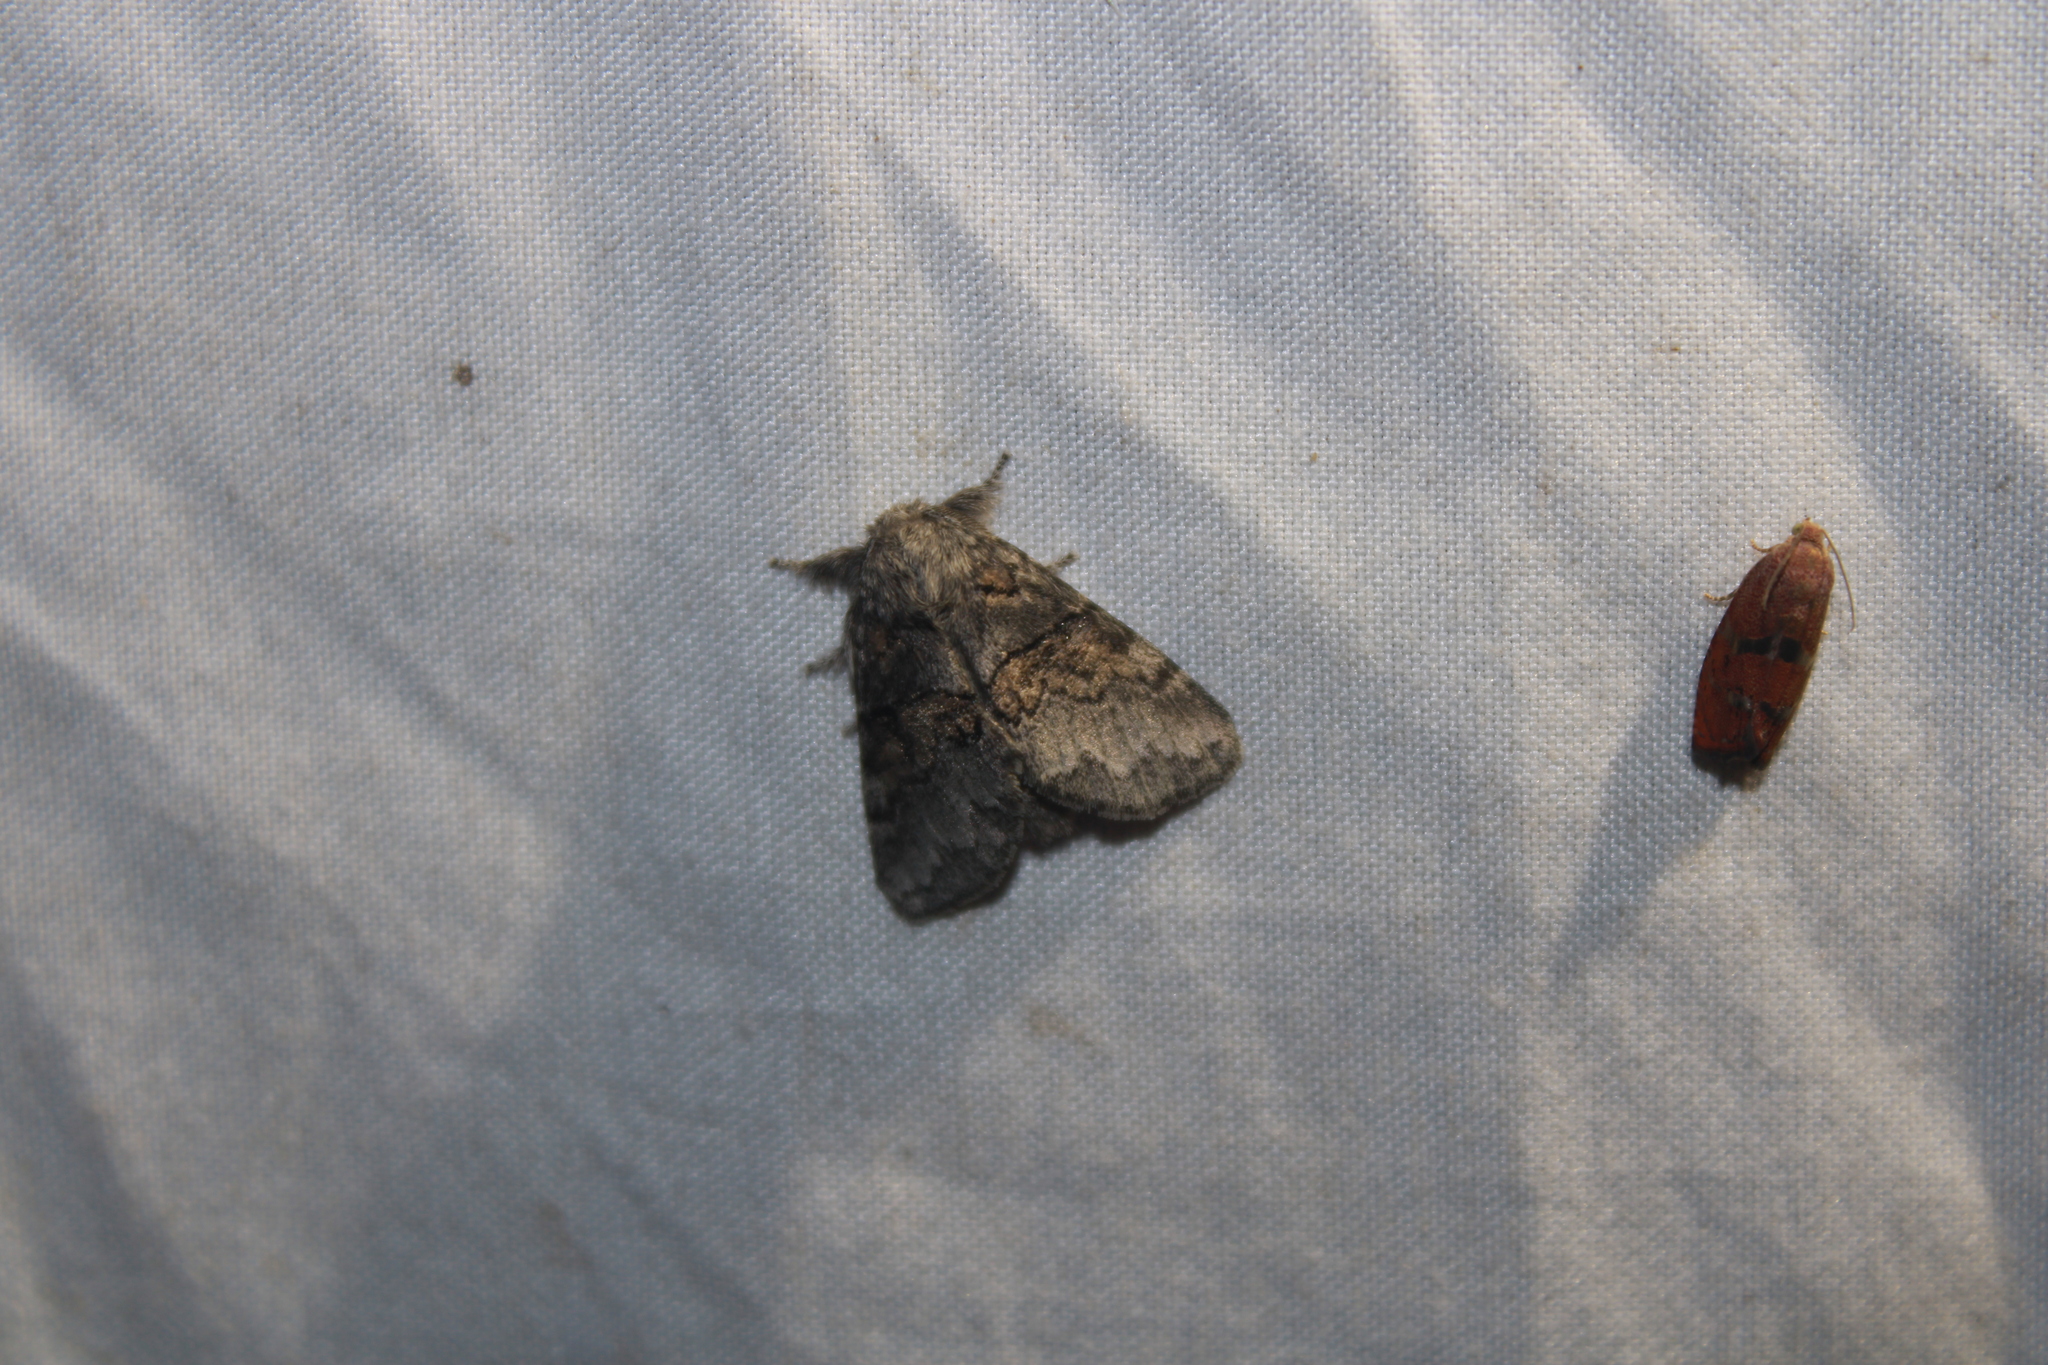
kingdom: Animalia
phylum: Arthropoda
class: Insecta
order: Lepidoptera
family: Notodontidae
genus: Gluphisia
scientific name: Gluphisia septentrionis
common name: Common gluphisia
